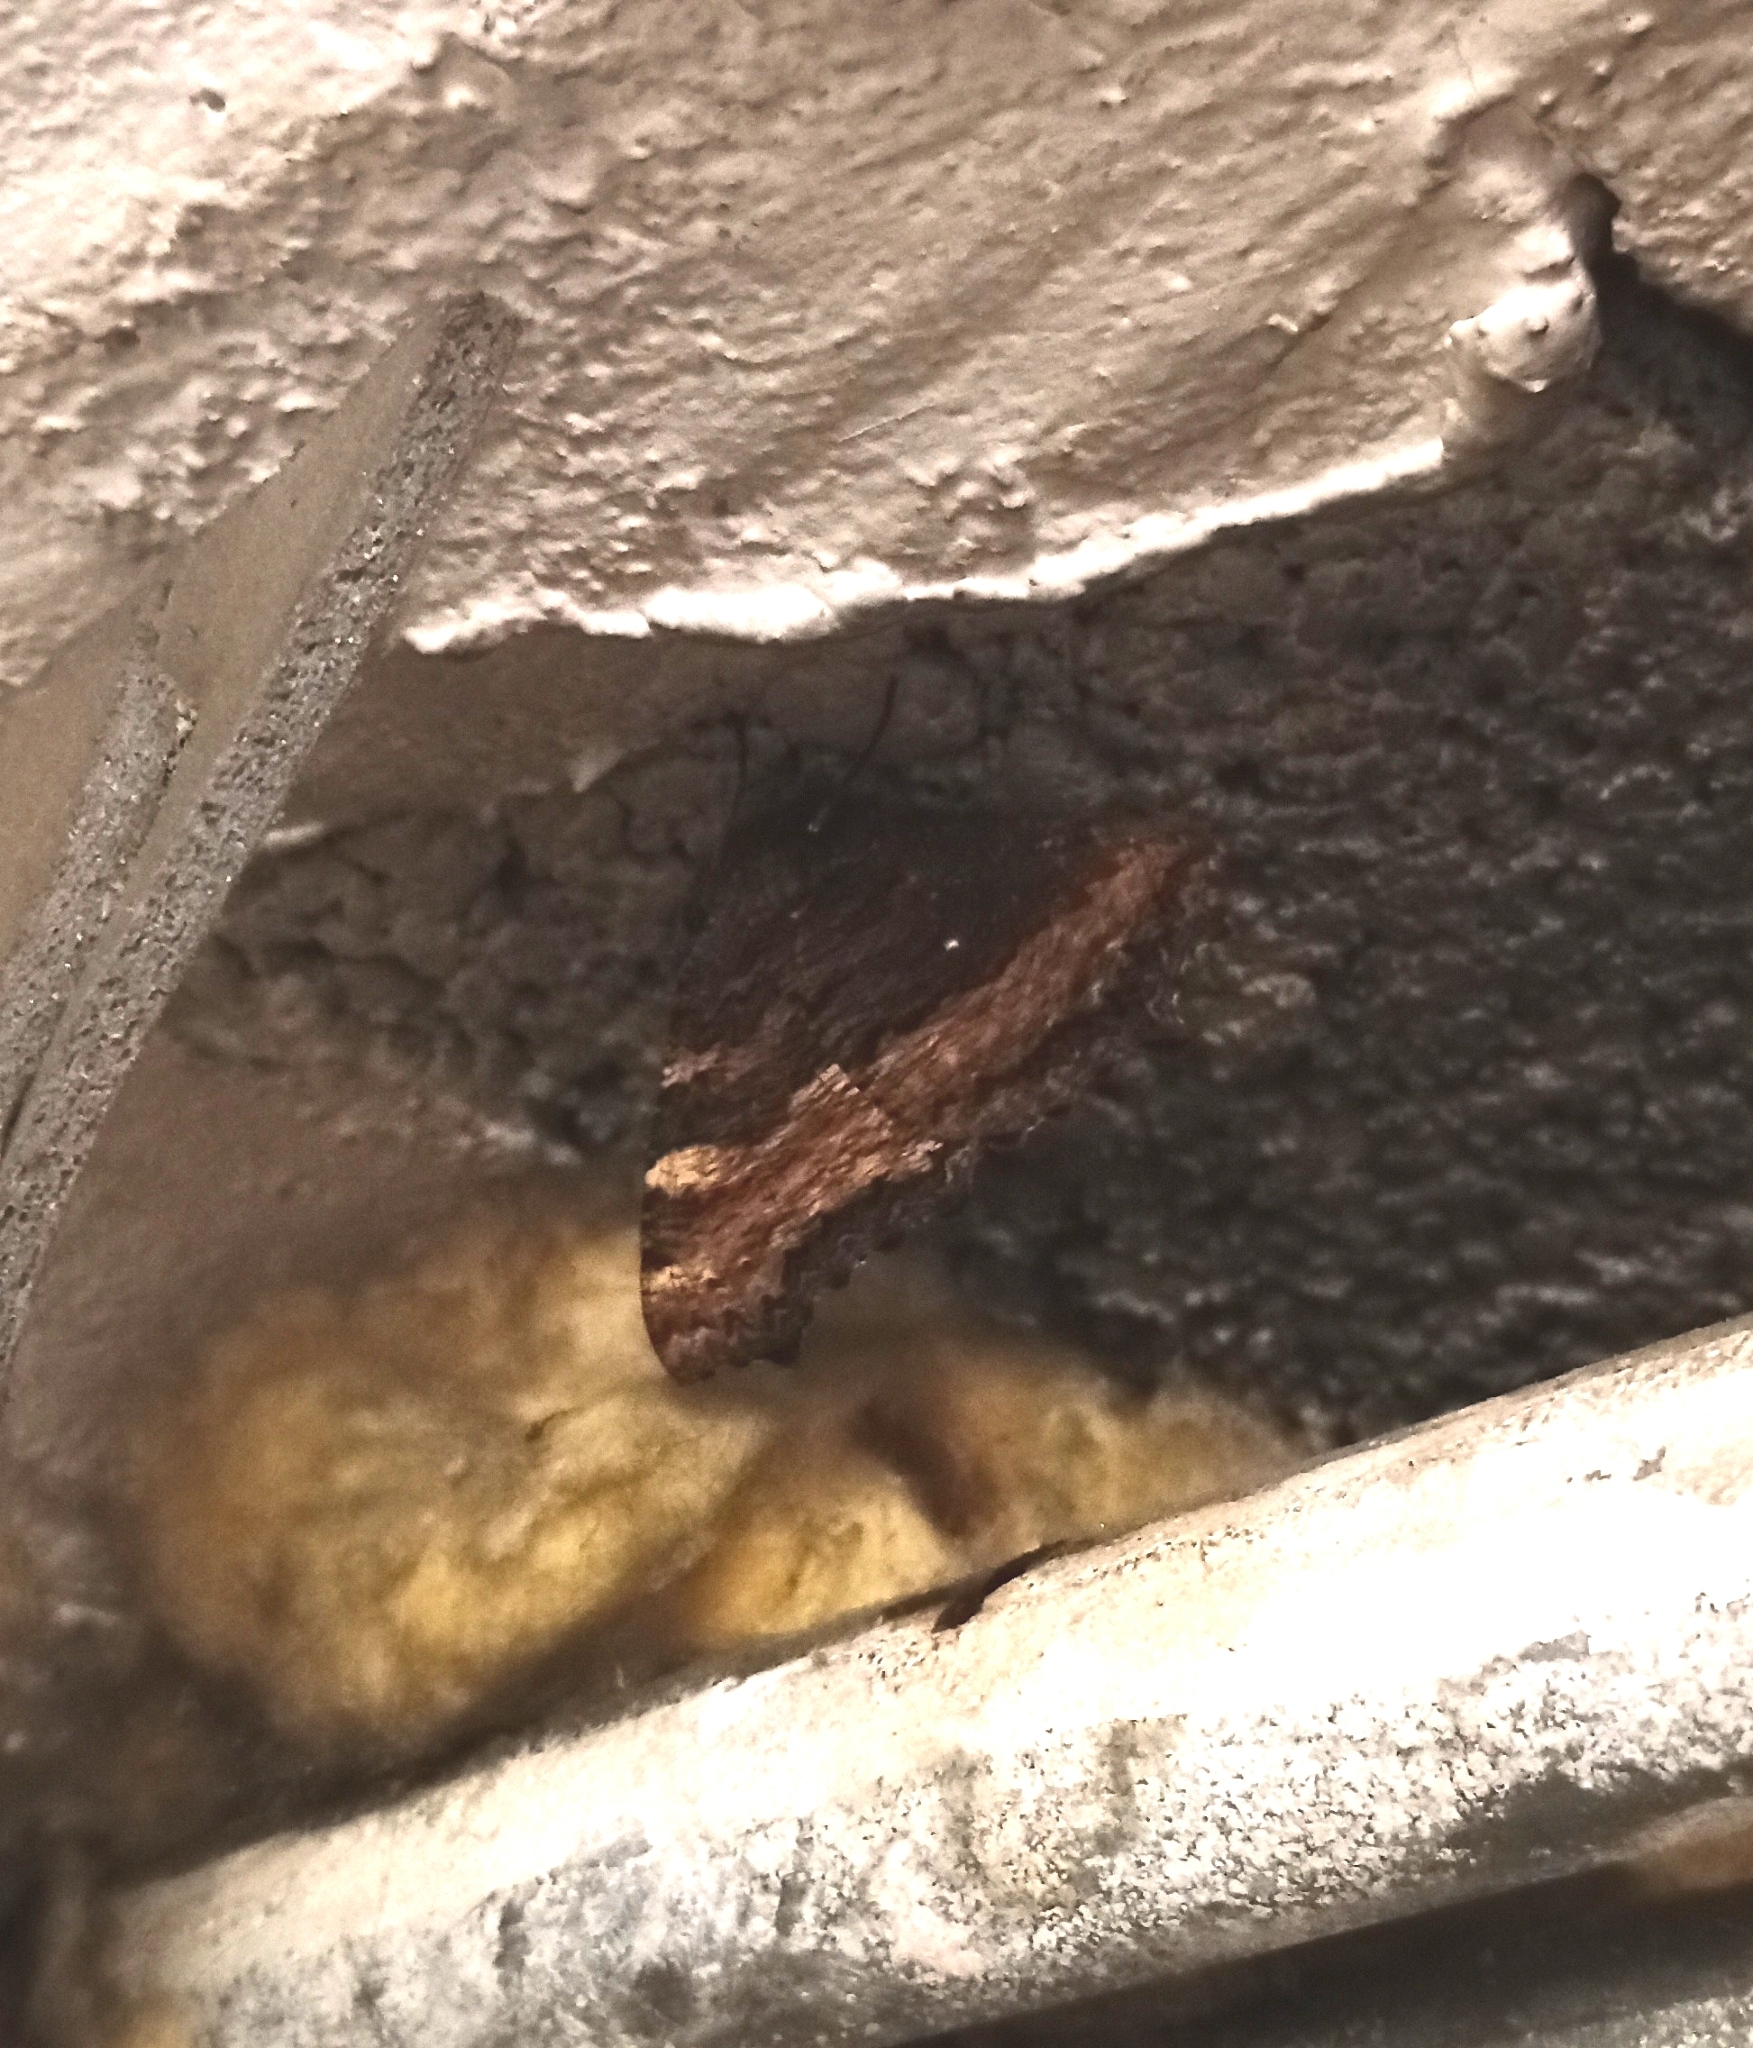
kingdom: Animalia
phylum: Arthropoda
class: Insecta
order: Lepidoptera
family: Nymphalidae
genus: Nymphalis
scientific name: Nymphalis polychloros
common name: Large tortoiseshell
